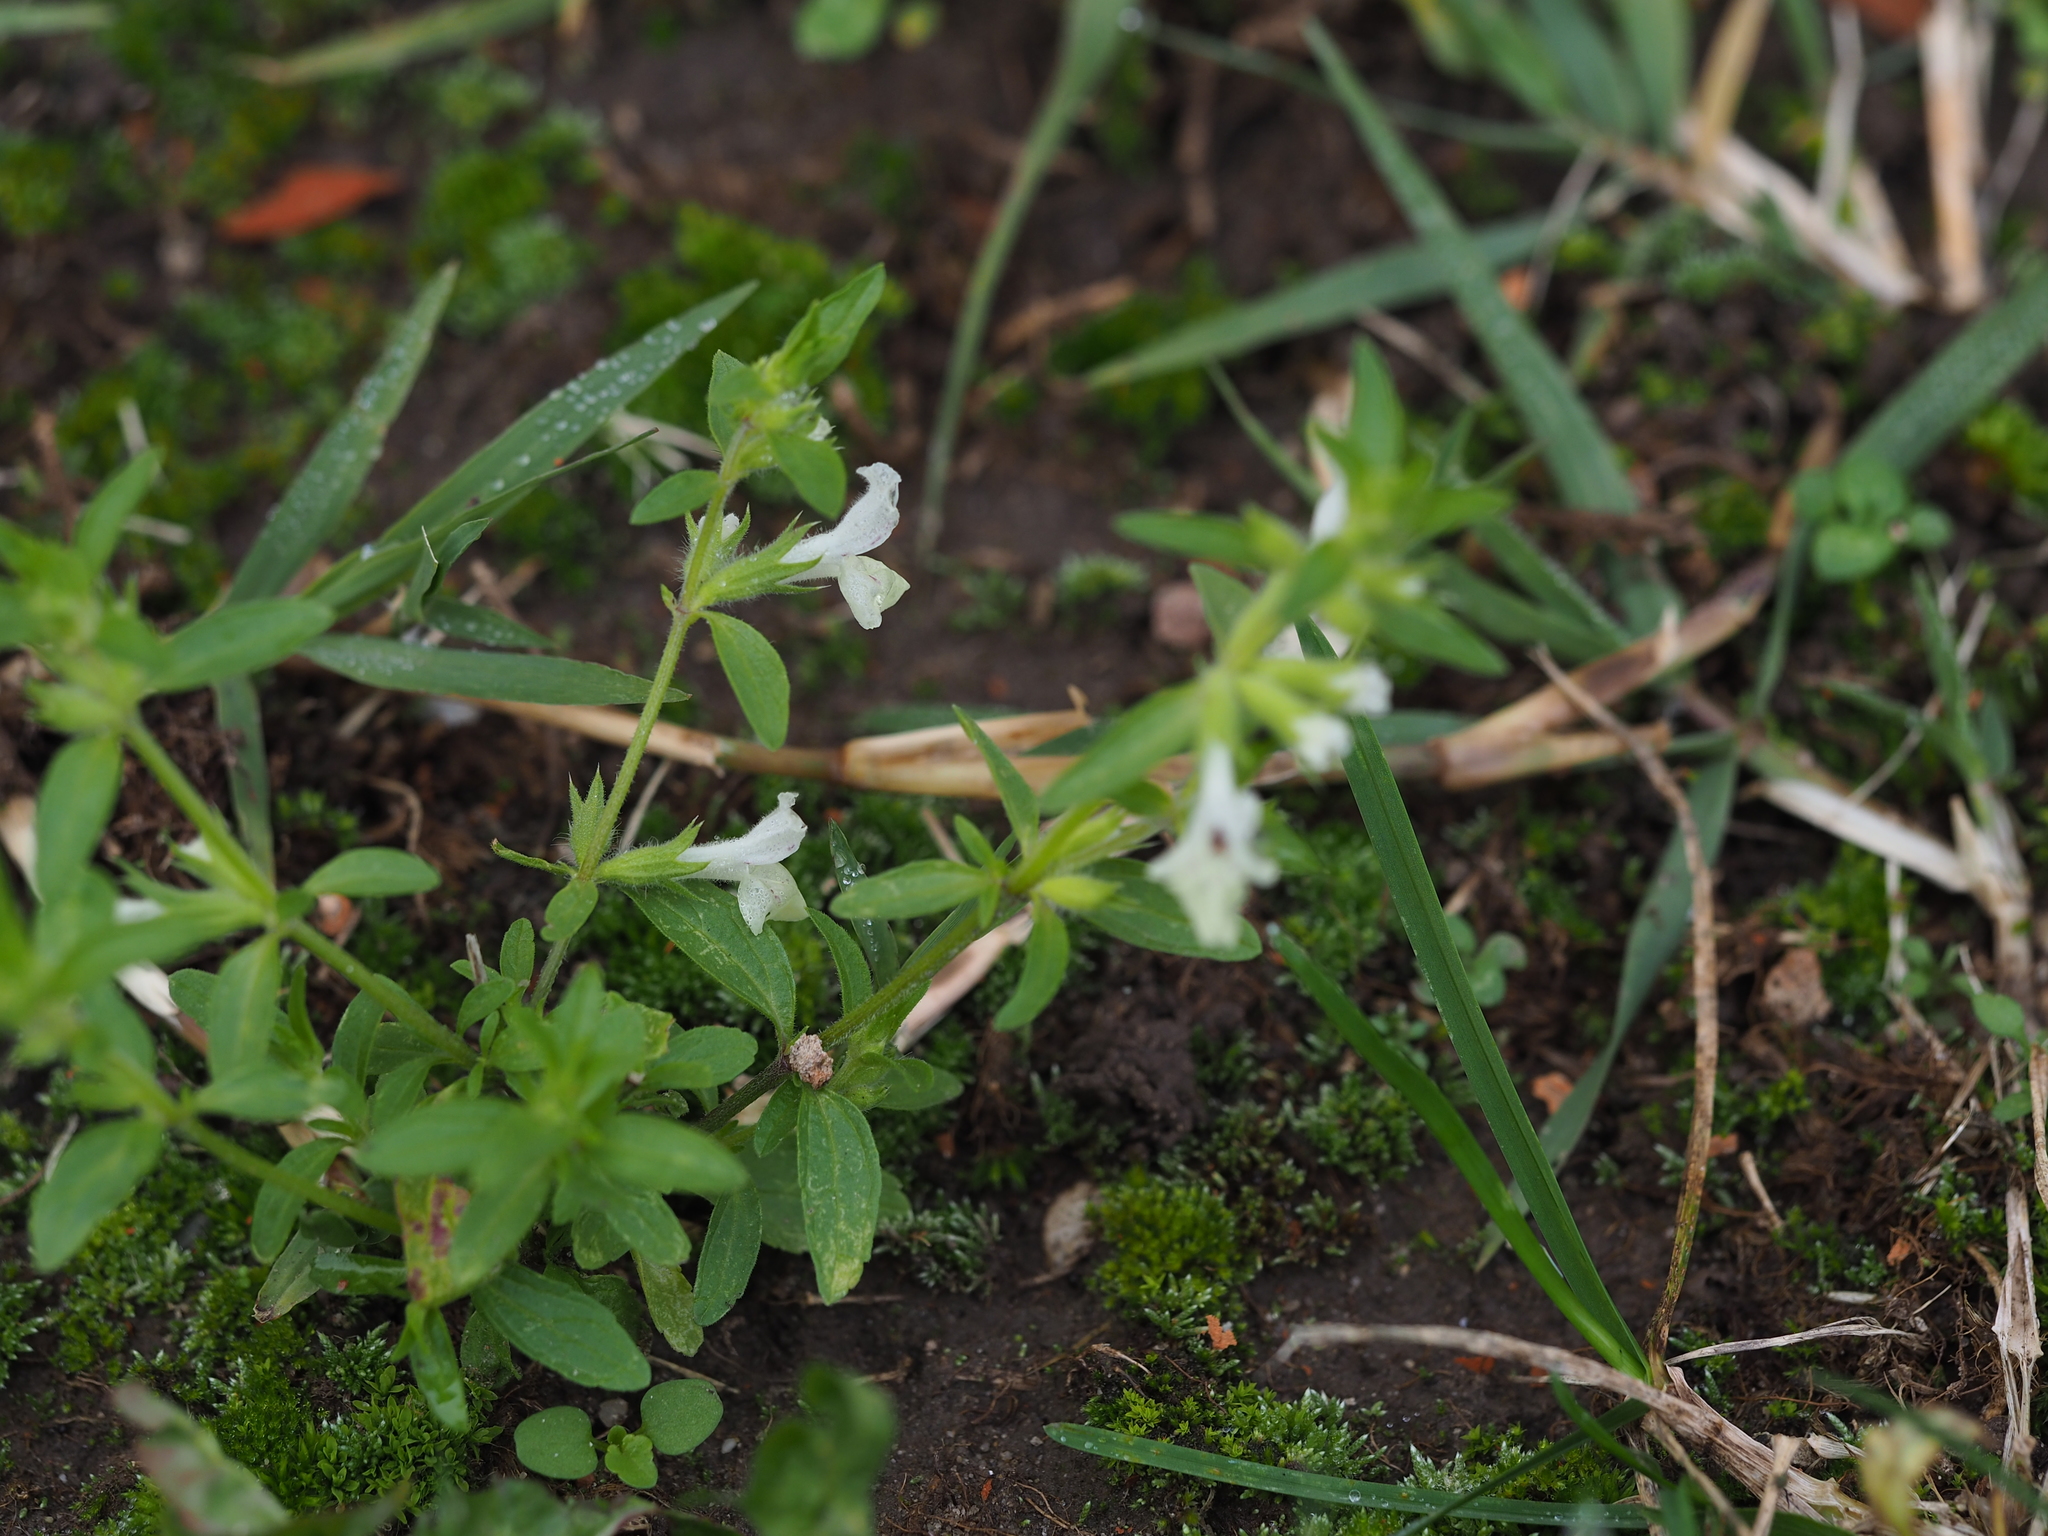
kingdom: Plantae
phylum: Tracheophyta
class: Magnoliopsida
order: Lamiales
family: Lamiaceae
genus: Stachys
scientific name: Stachys annua
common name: Annual yellow-woundwort
